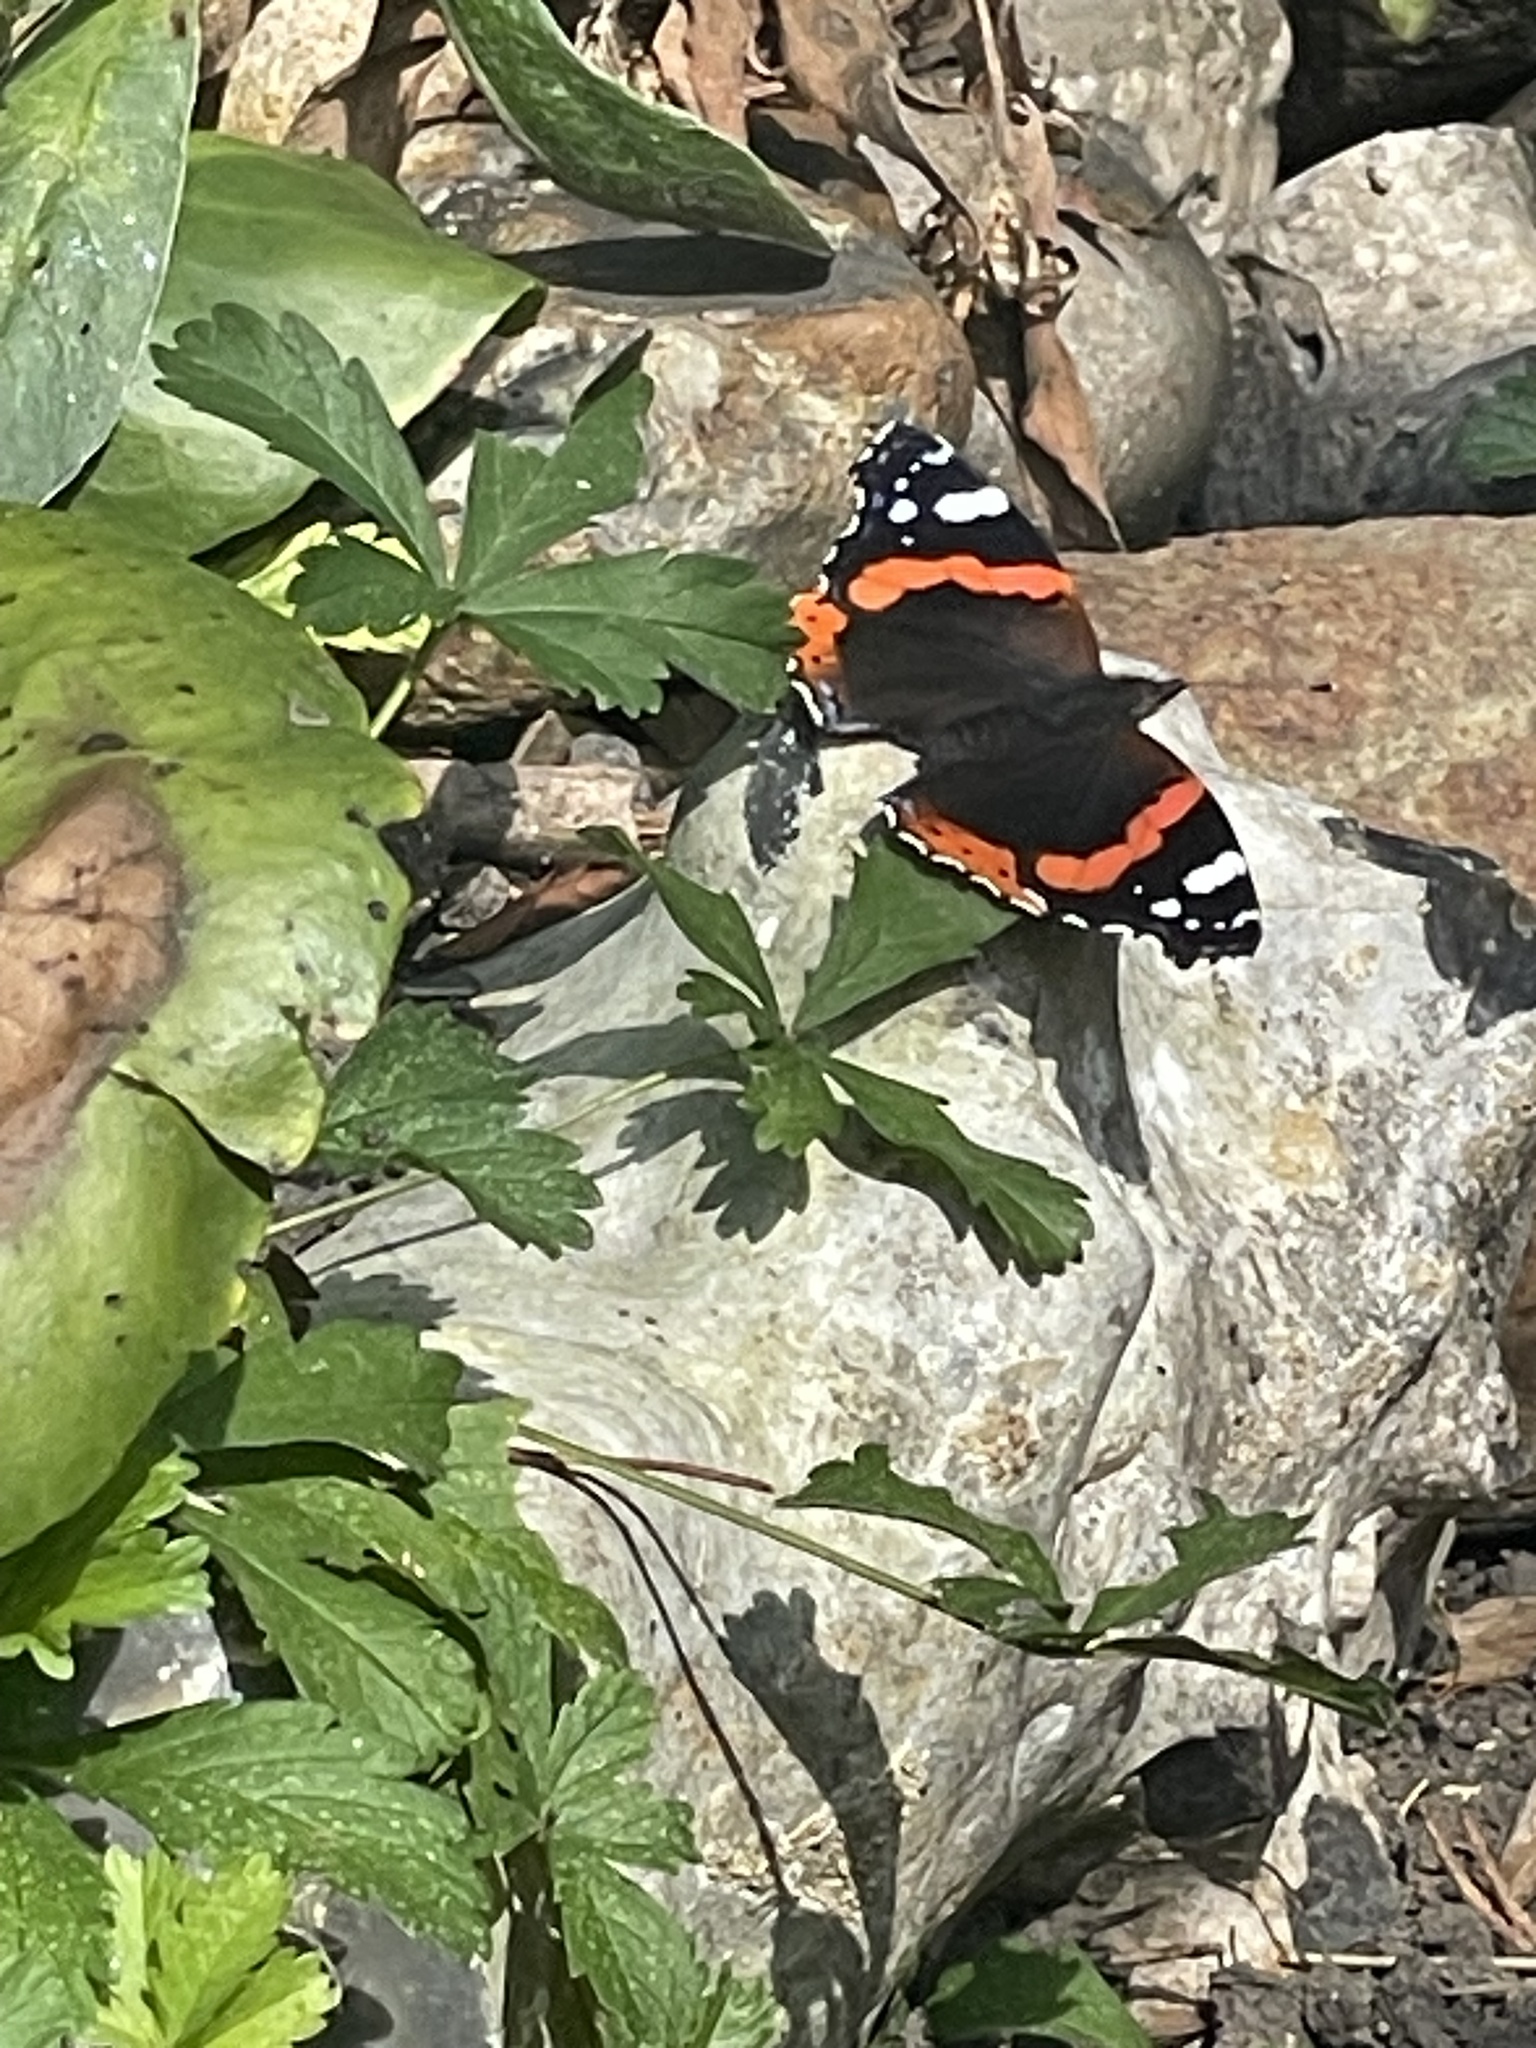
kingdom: Animalia
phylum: Arthropoda
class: Insecta
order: Lepidoptera
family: Nymphalidae
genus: Vanessa
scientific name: Vanessa atalanta
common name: Red admiral
